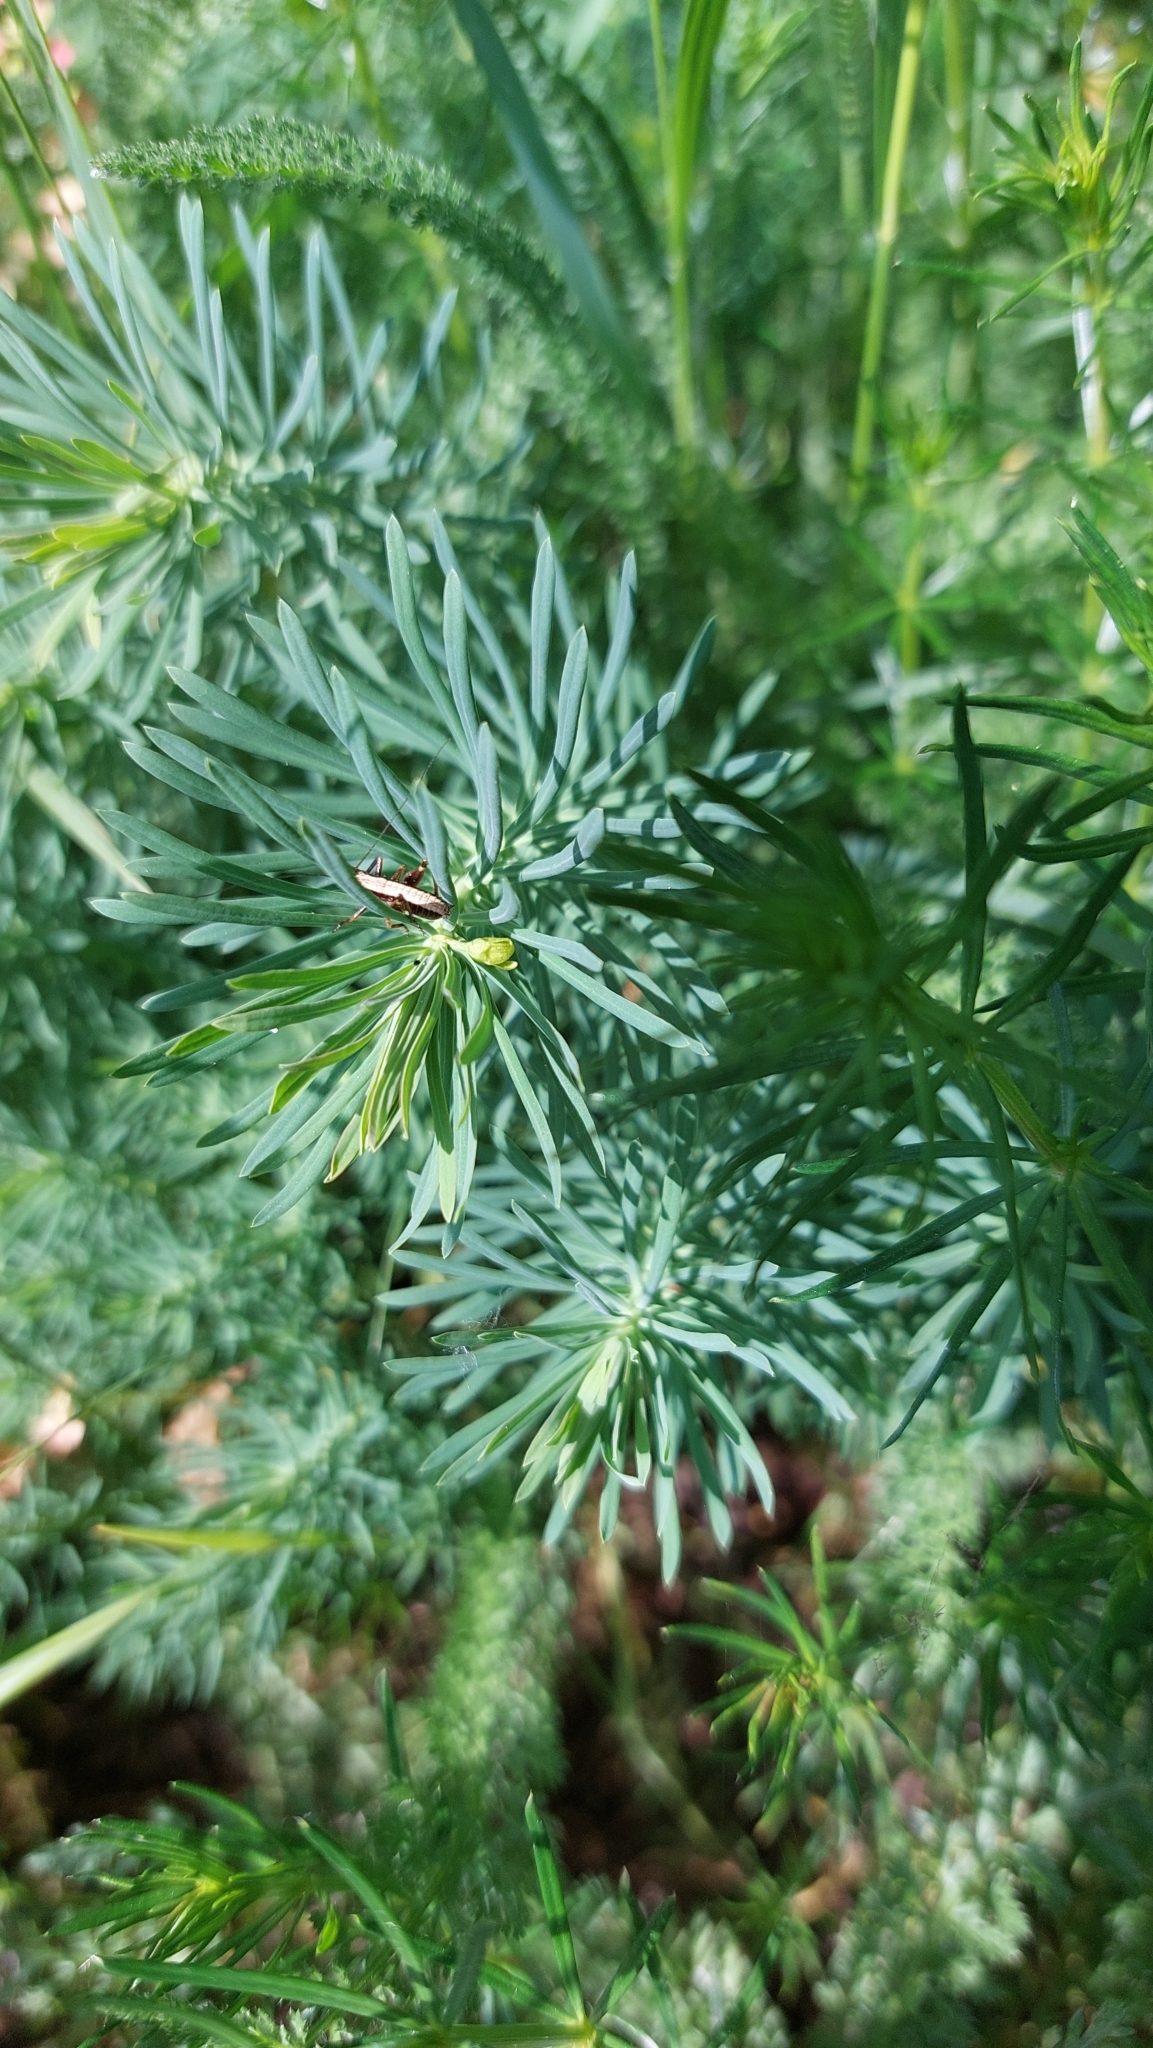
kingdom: Plantae
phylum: Tracheophyta
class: Magnoliopsida
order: Malpighiales
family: Euphorbiaceae
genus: Euphorbia
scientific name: Euphorbia cyparissias
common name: Cypress spurge
